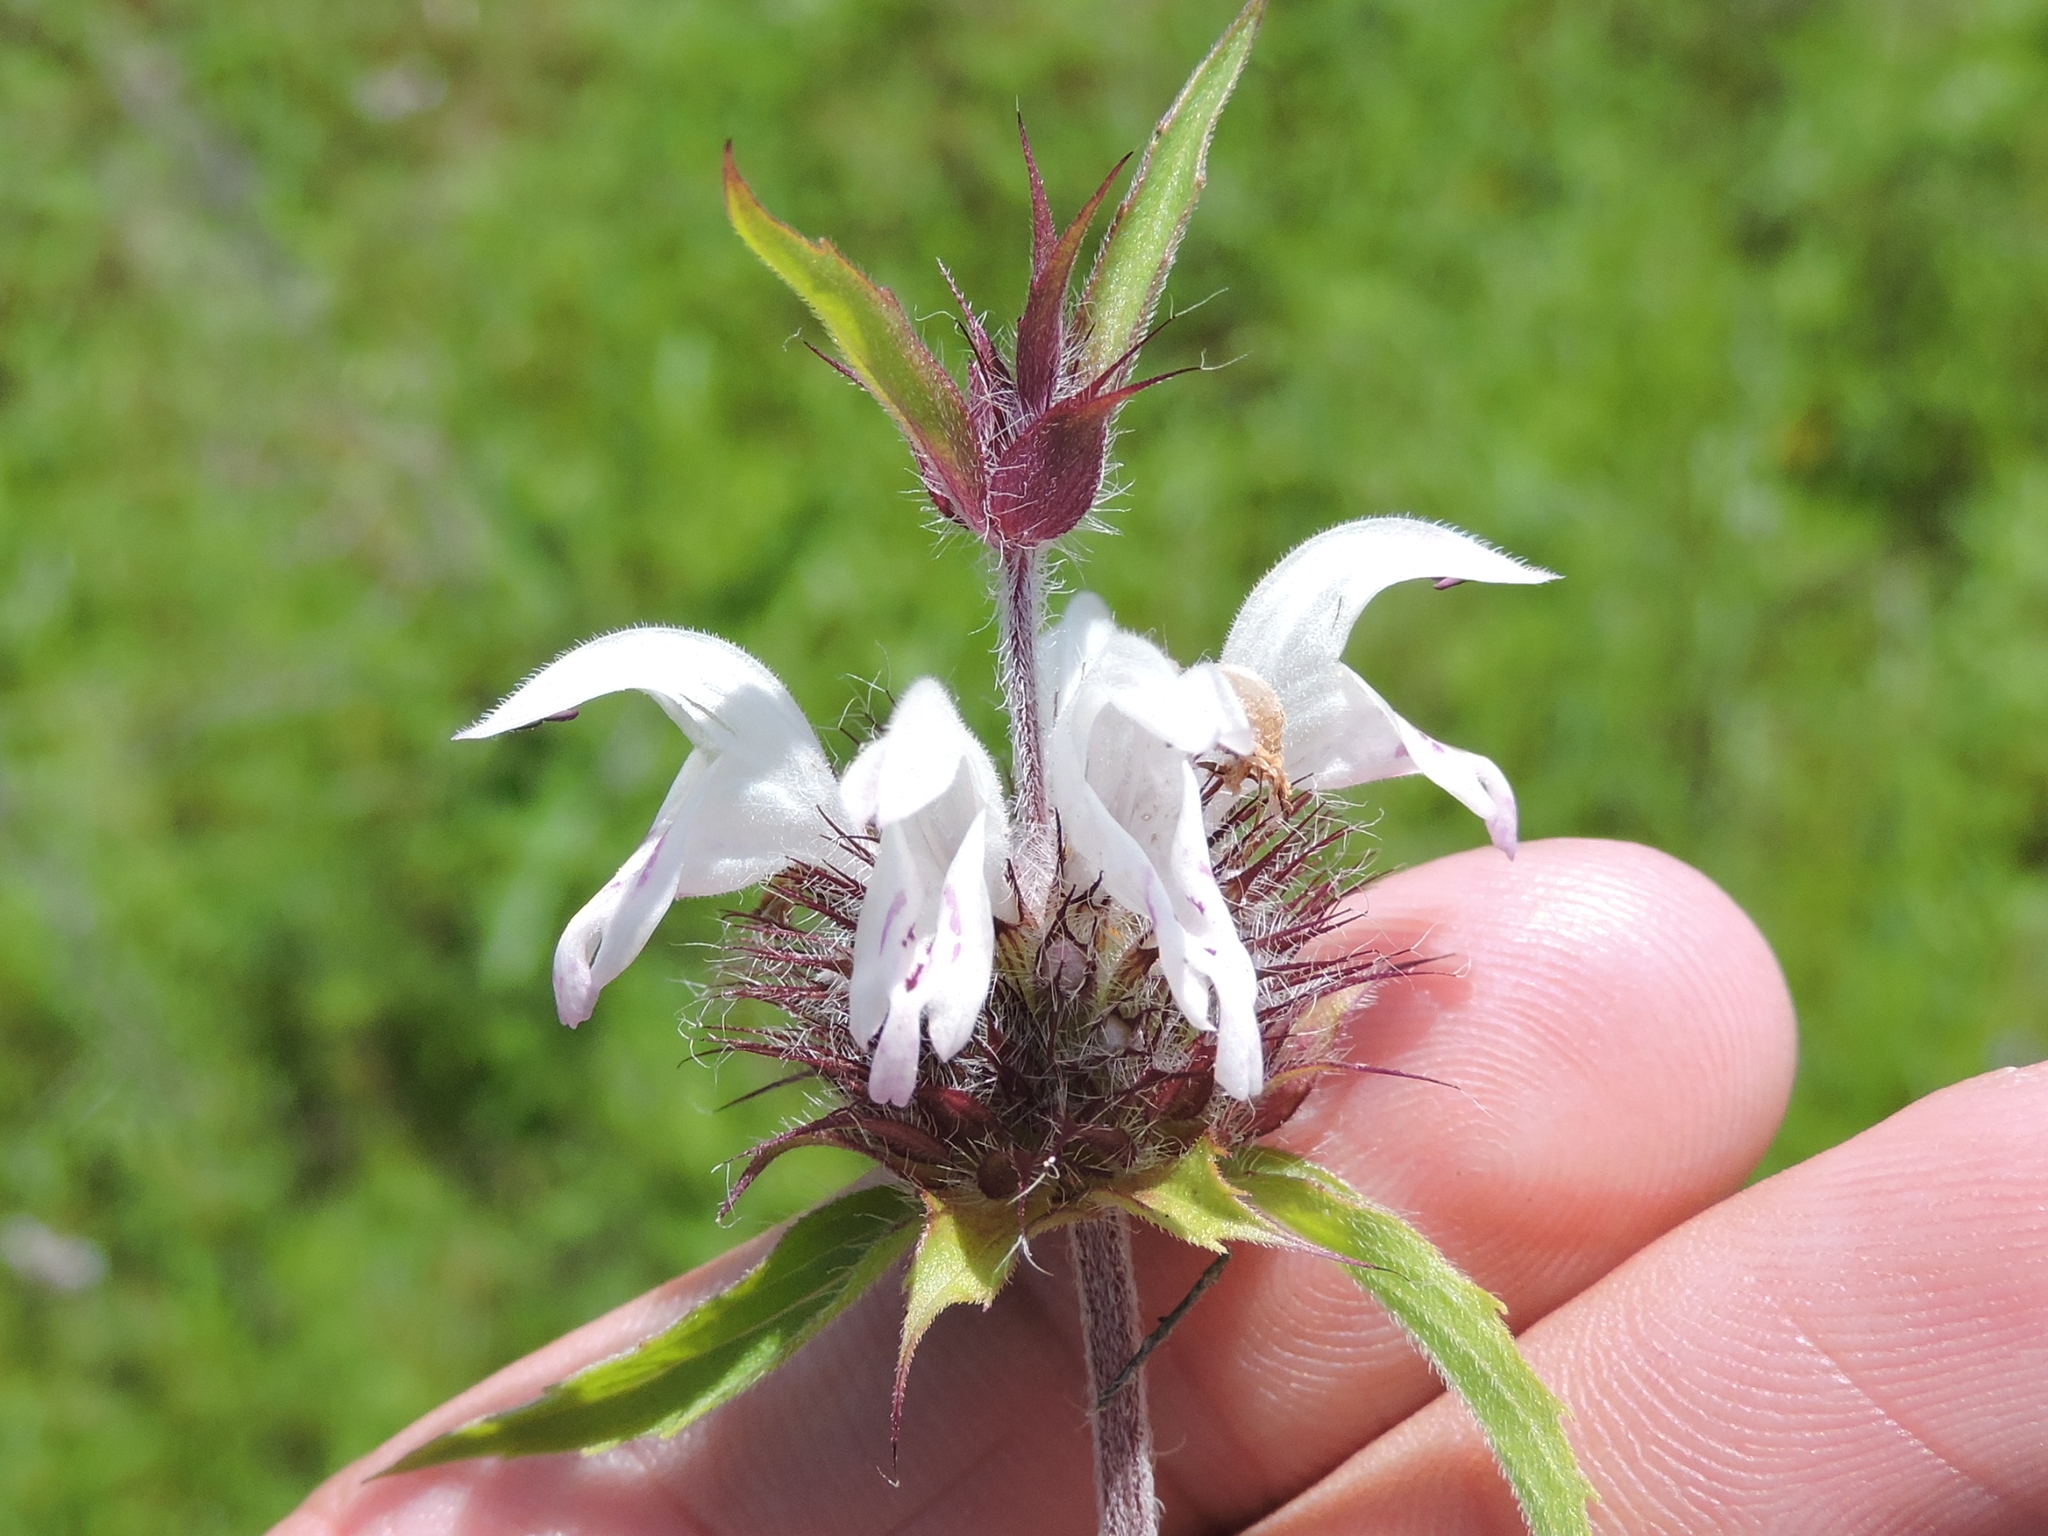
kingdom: Plantae
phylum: Tracheophyta
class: Magnoliopsida
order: Lamiales
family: Lamiaceae
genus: Monarda
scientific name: Monarda clinopodioides
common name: Basil beebalm
